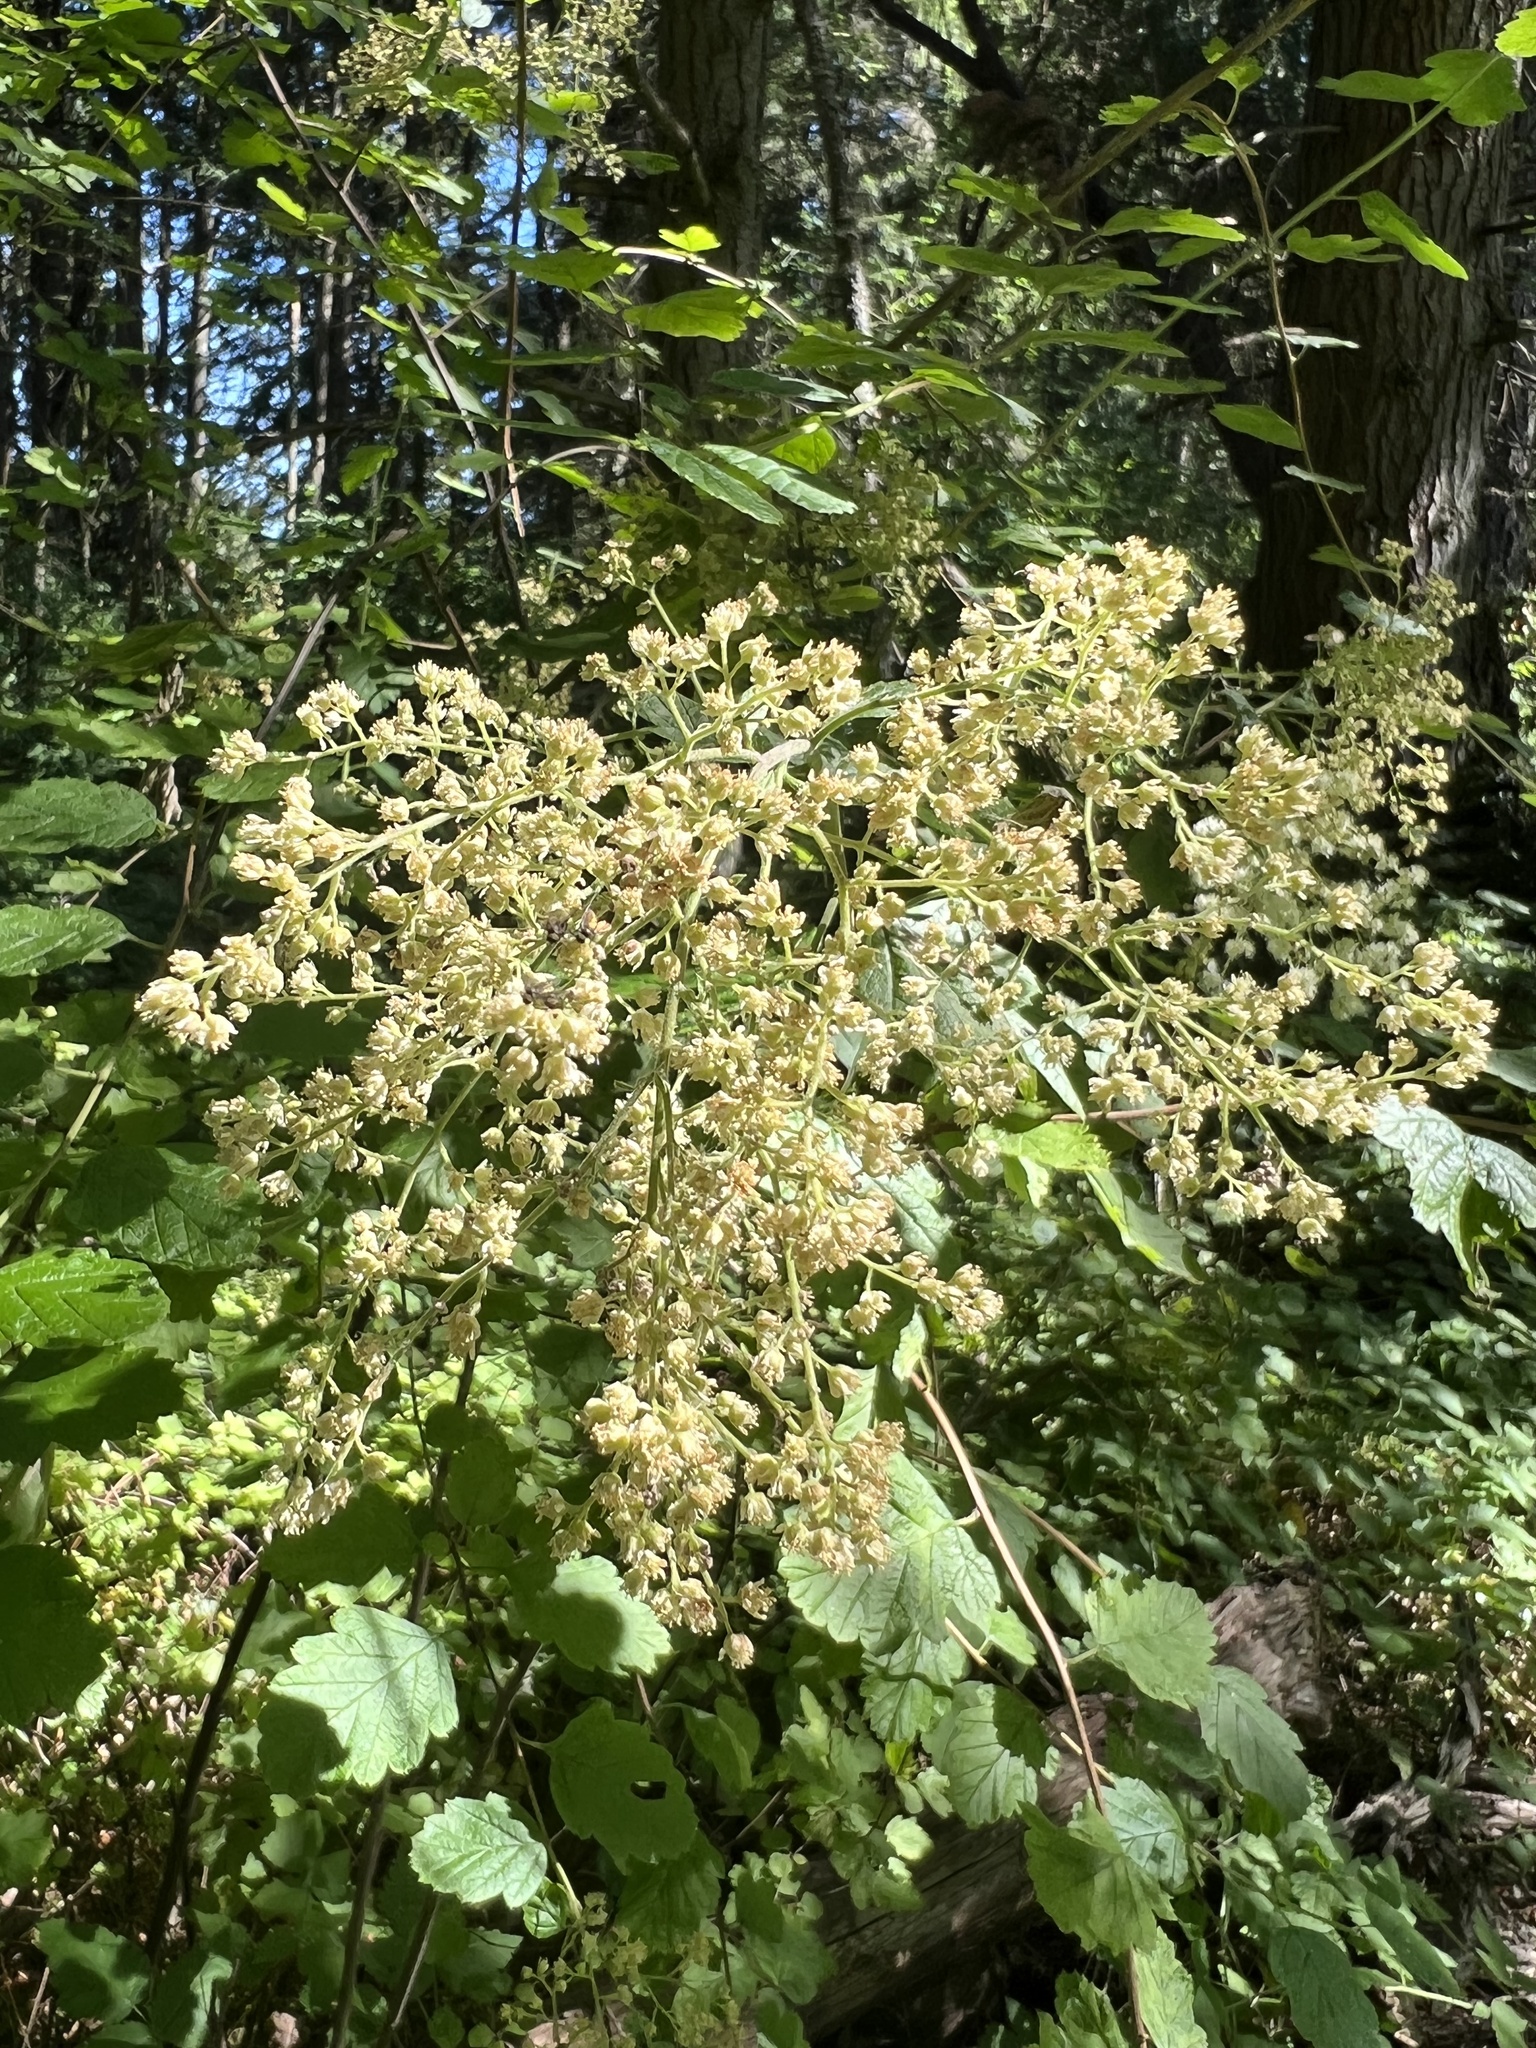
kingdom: Plantae
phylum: Tracheophyta
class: Magnoliopsida
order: Rosales
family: Rosaceae
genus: Holodiscus
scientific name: Holodiscus discolor
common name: Oceanspray
